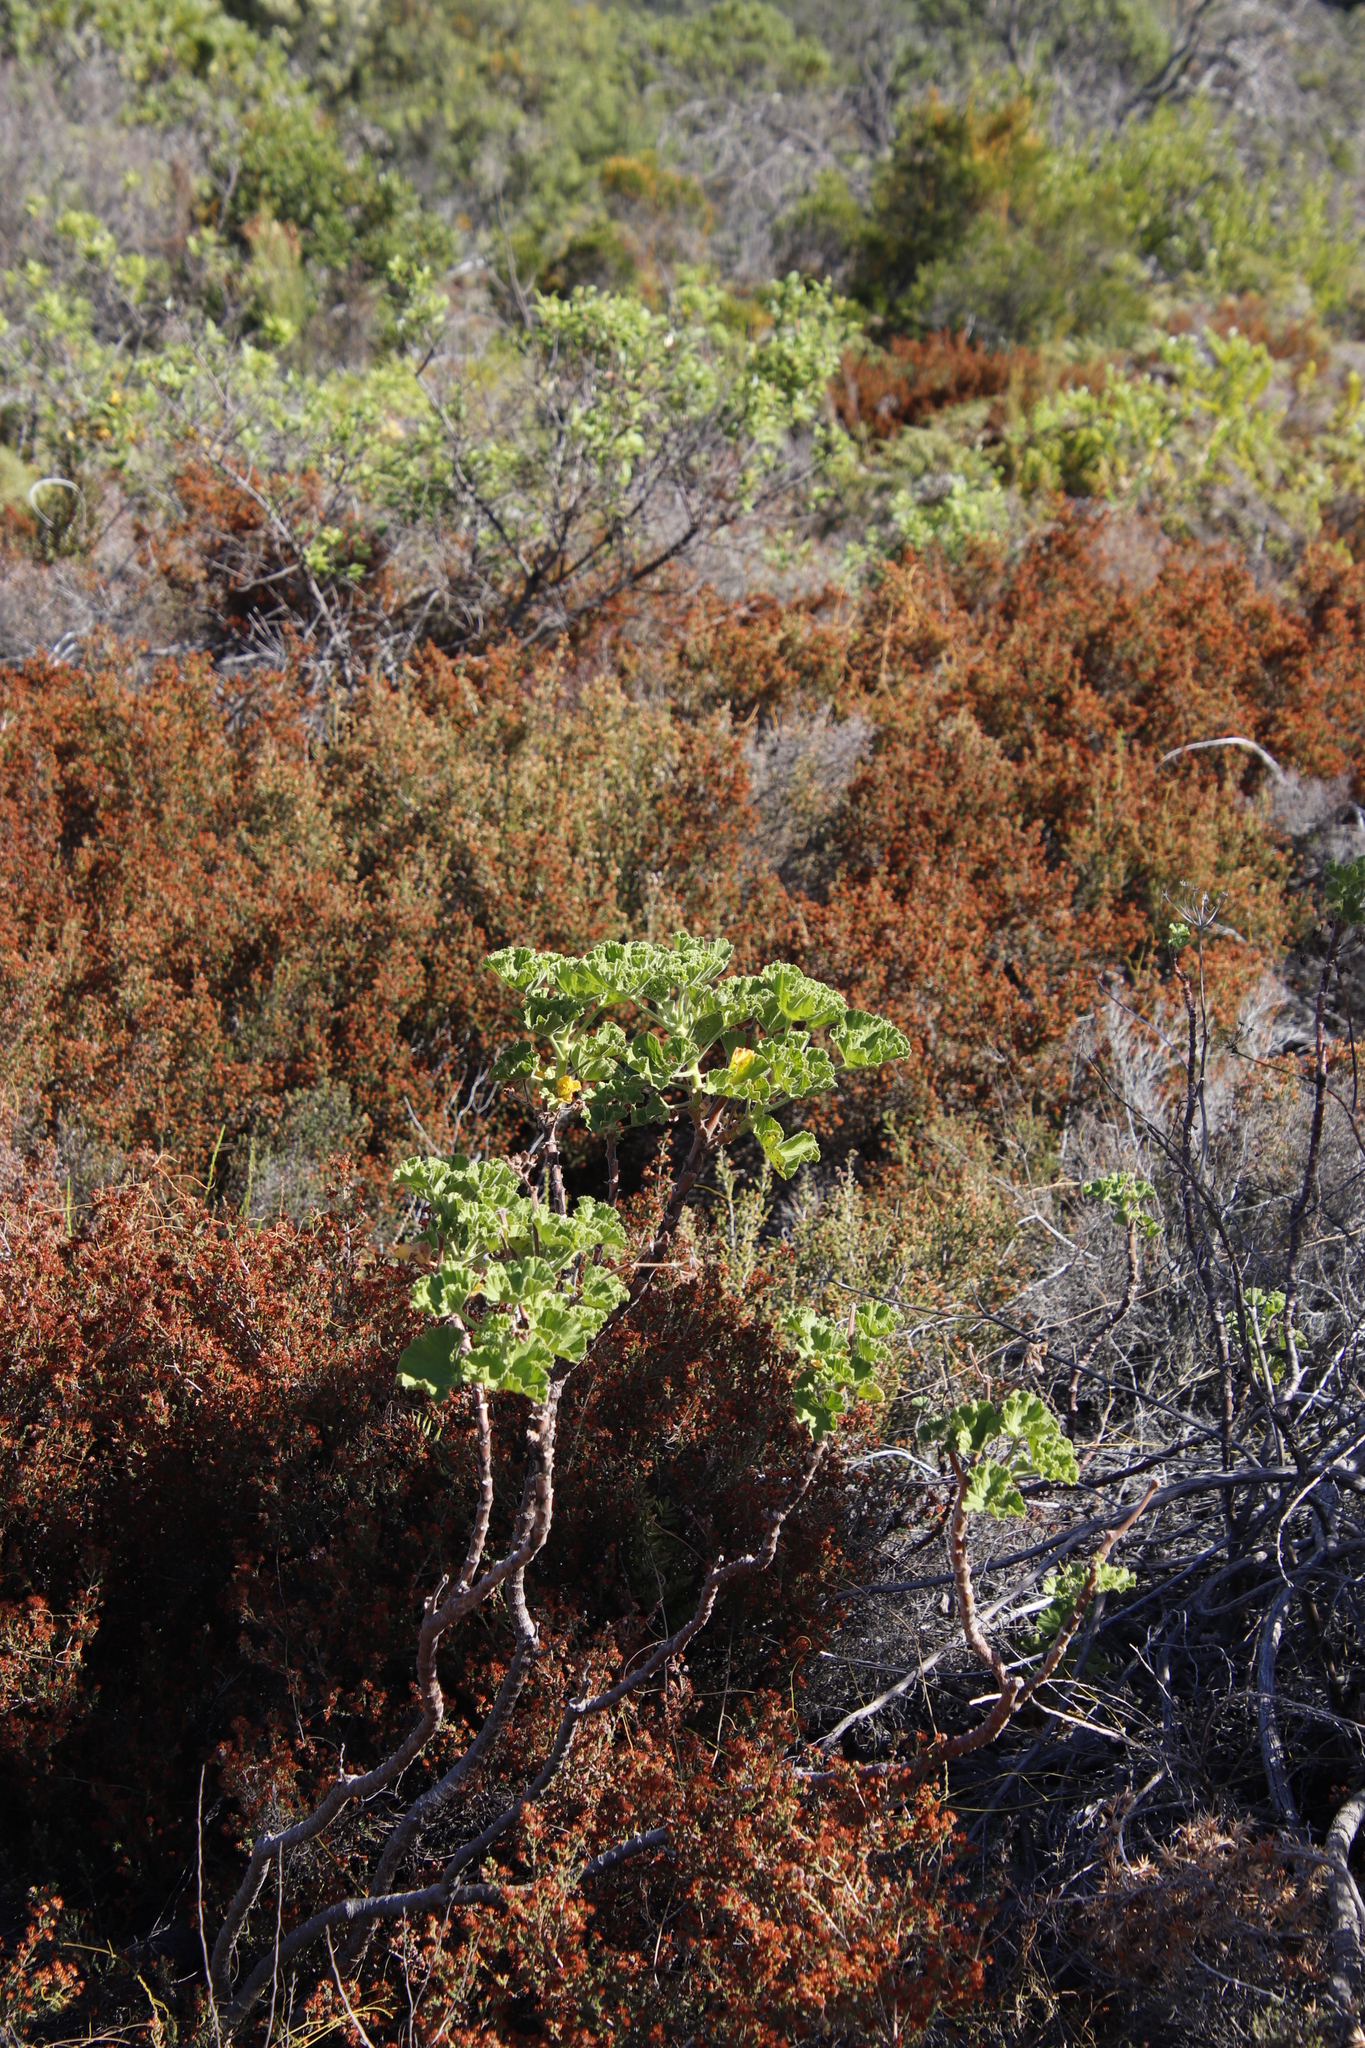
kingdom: Plantae
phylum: Tracheophyta
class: Magnoliopsida
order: Geraniales
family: Geraniaceae
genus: Pelargonium
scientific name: Pelargonium cucullatum
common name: Tree pelargonium
